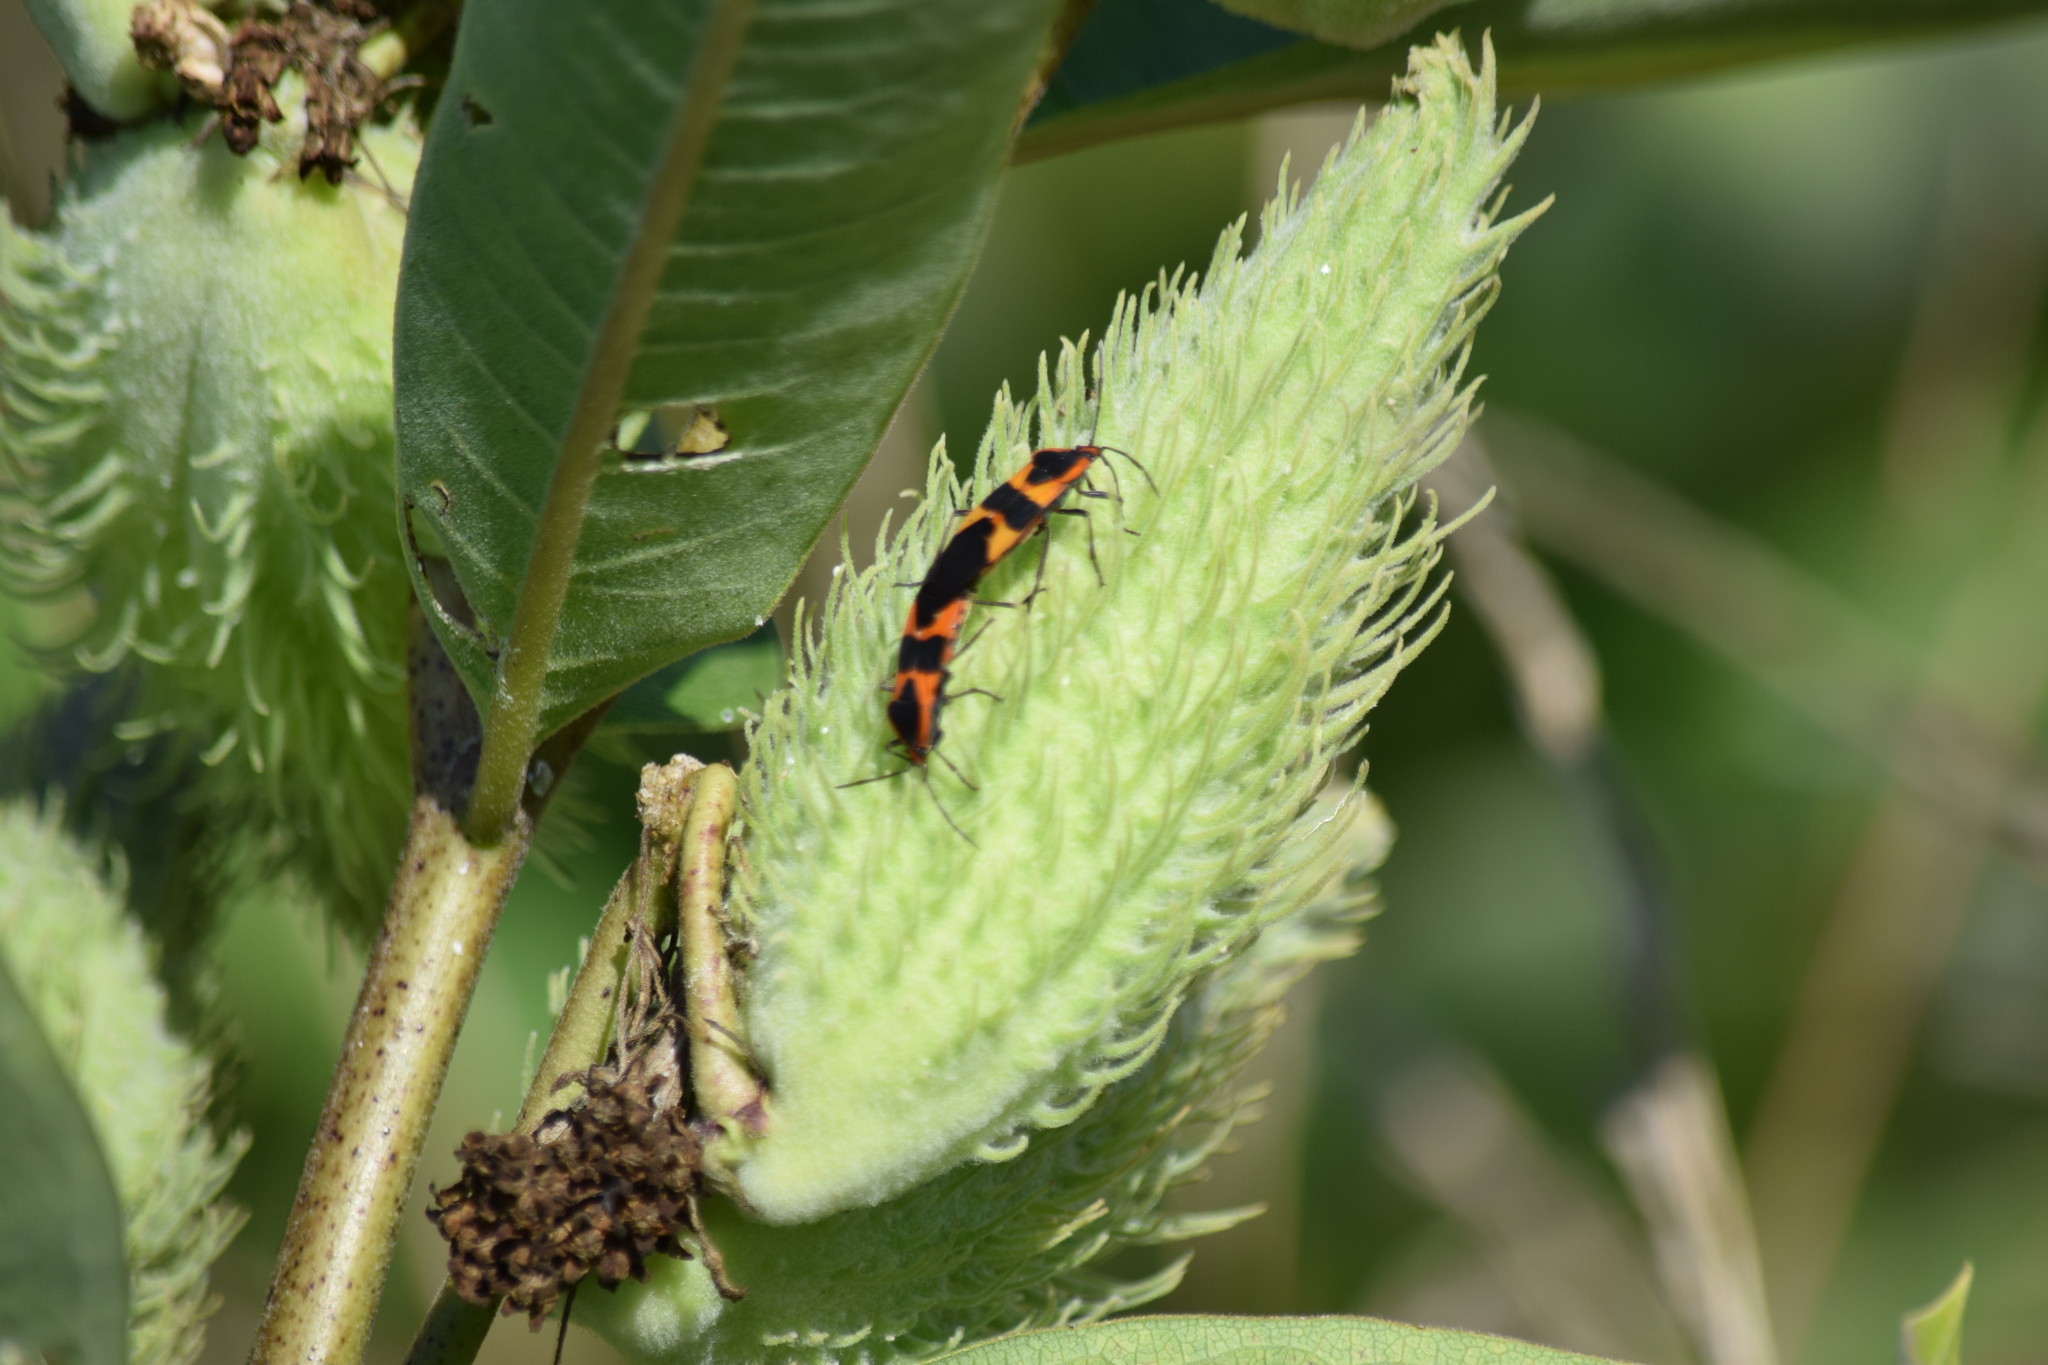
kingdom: Animalia
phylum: Arthropoda
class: Insecta
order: Hemiptera
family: Lygaeidae
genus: Oncopeltus
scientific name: Oncopeltus fasciatus
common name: Large milkweed bug
